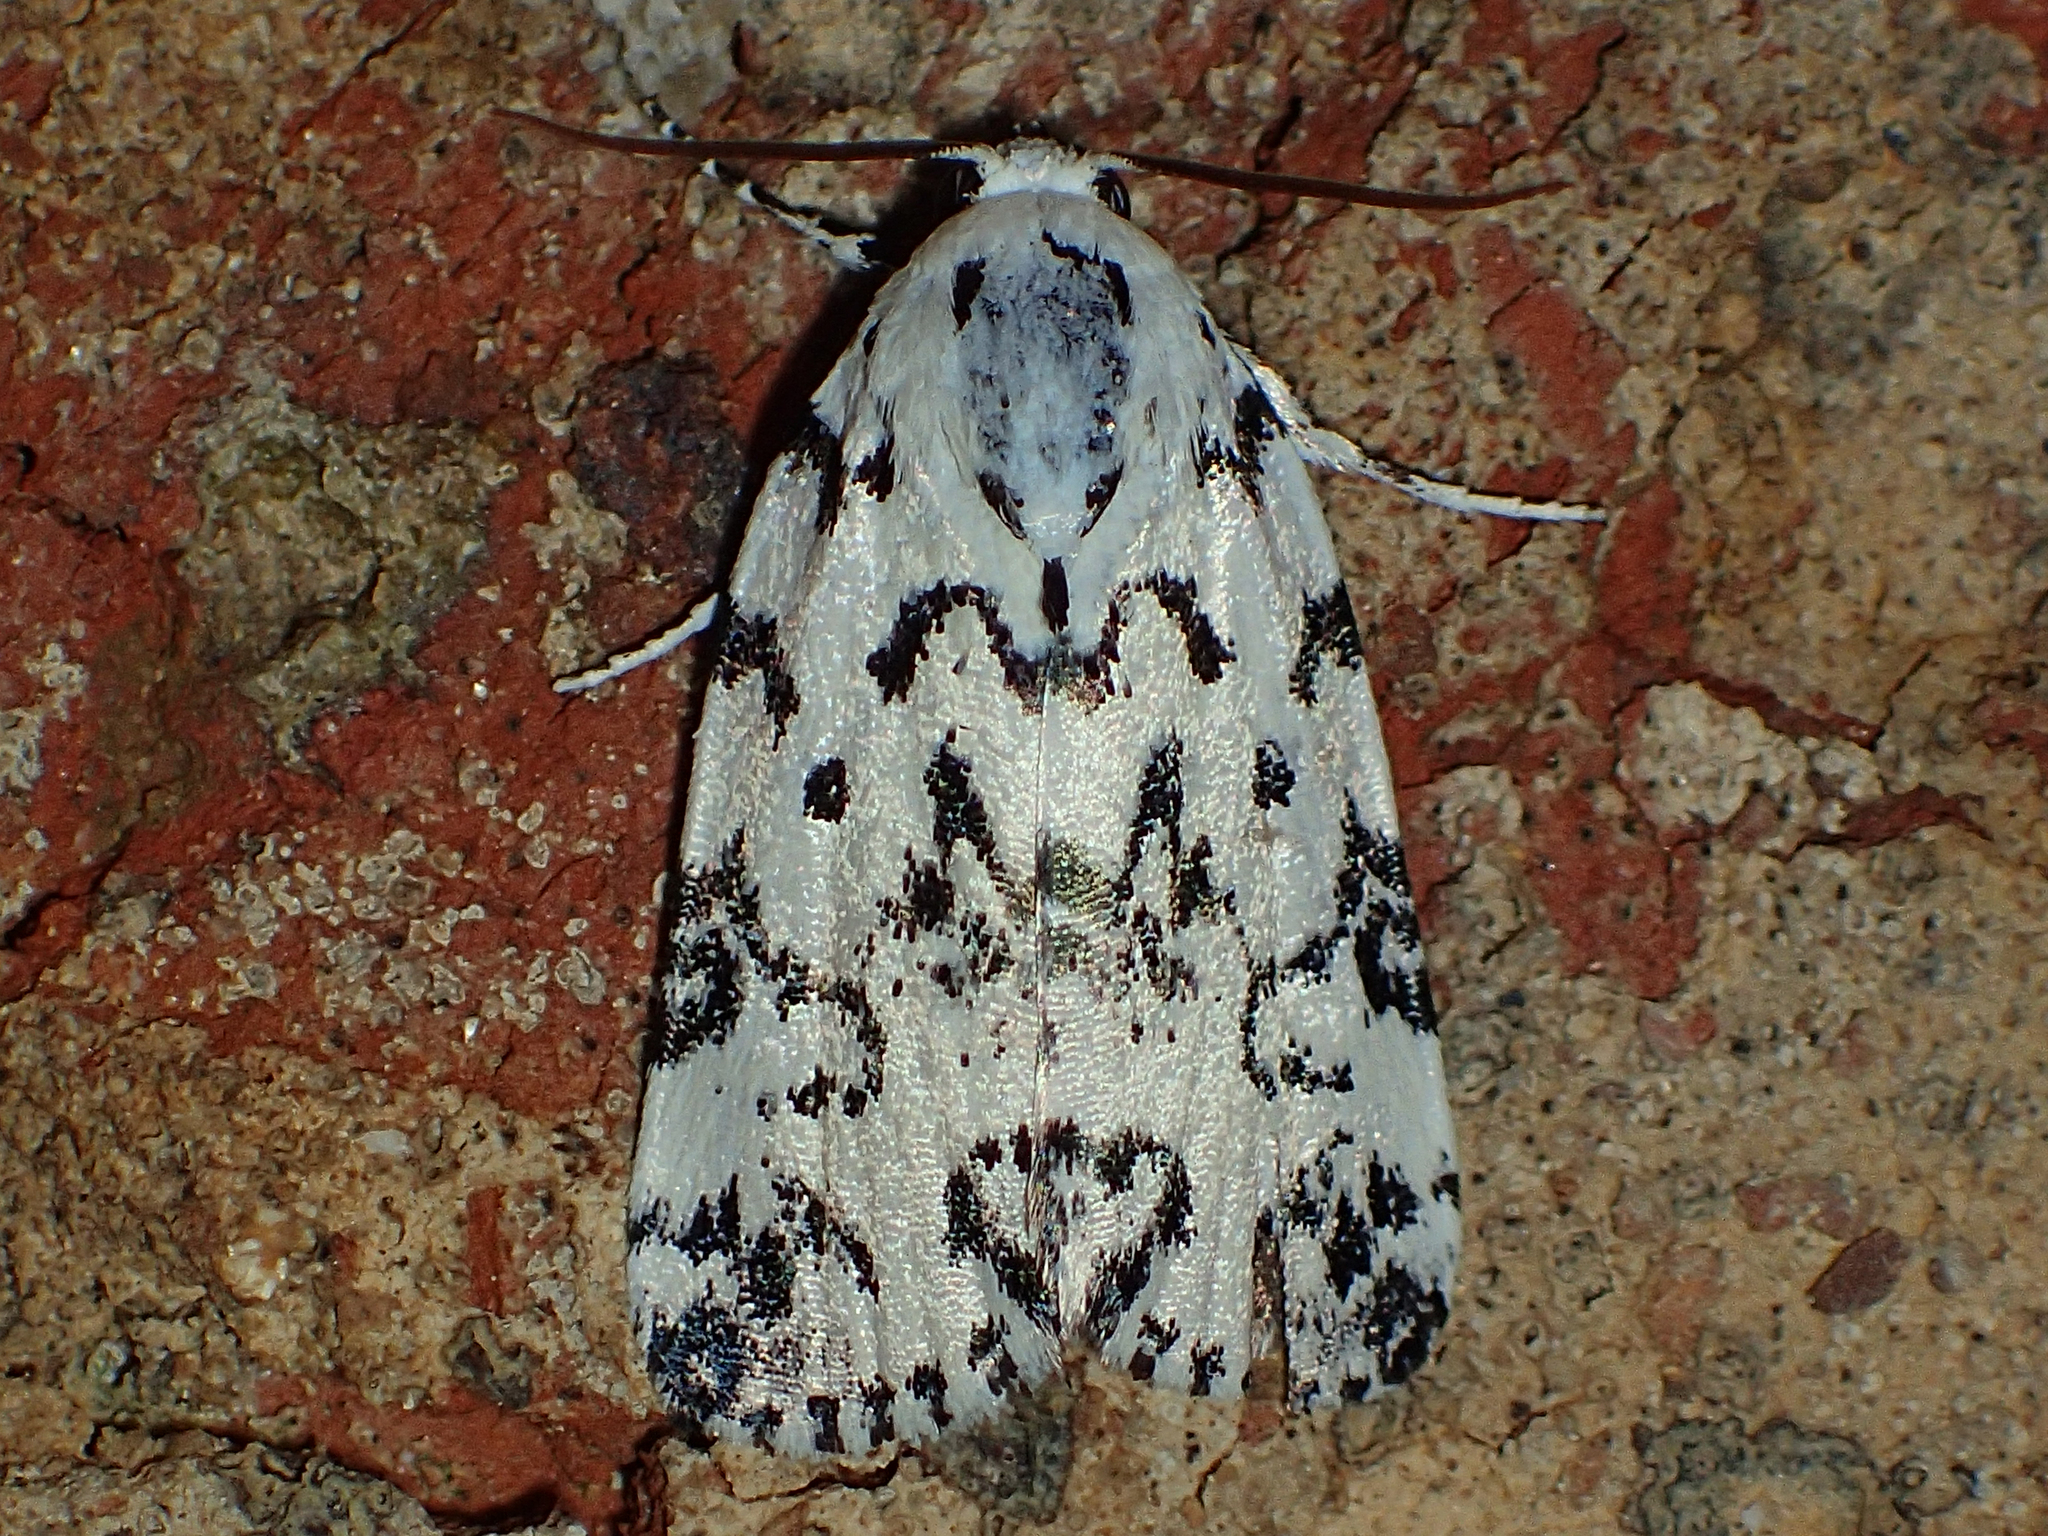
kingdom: Animalia
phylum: Arthropoda
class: Insecta
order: Lepidoptera
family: Noctuidae
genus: Polygrammate
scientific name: Polygrammate hebraeicum
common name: Hebrew moth
